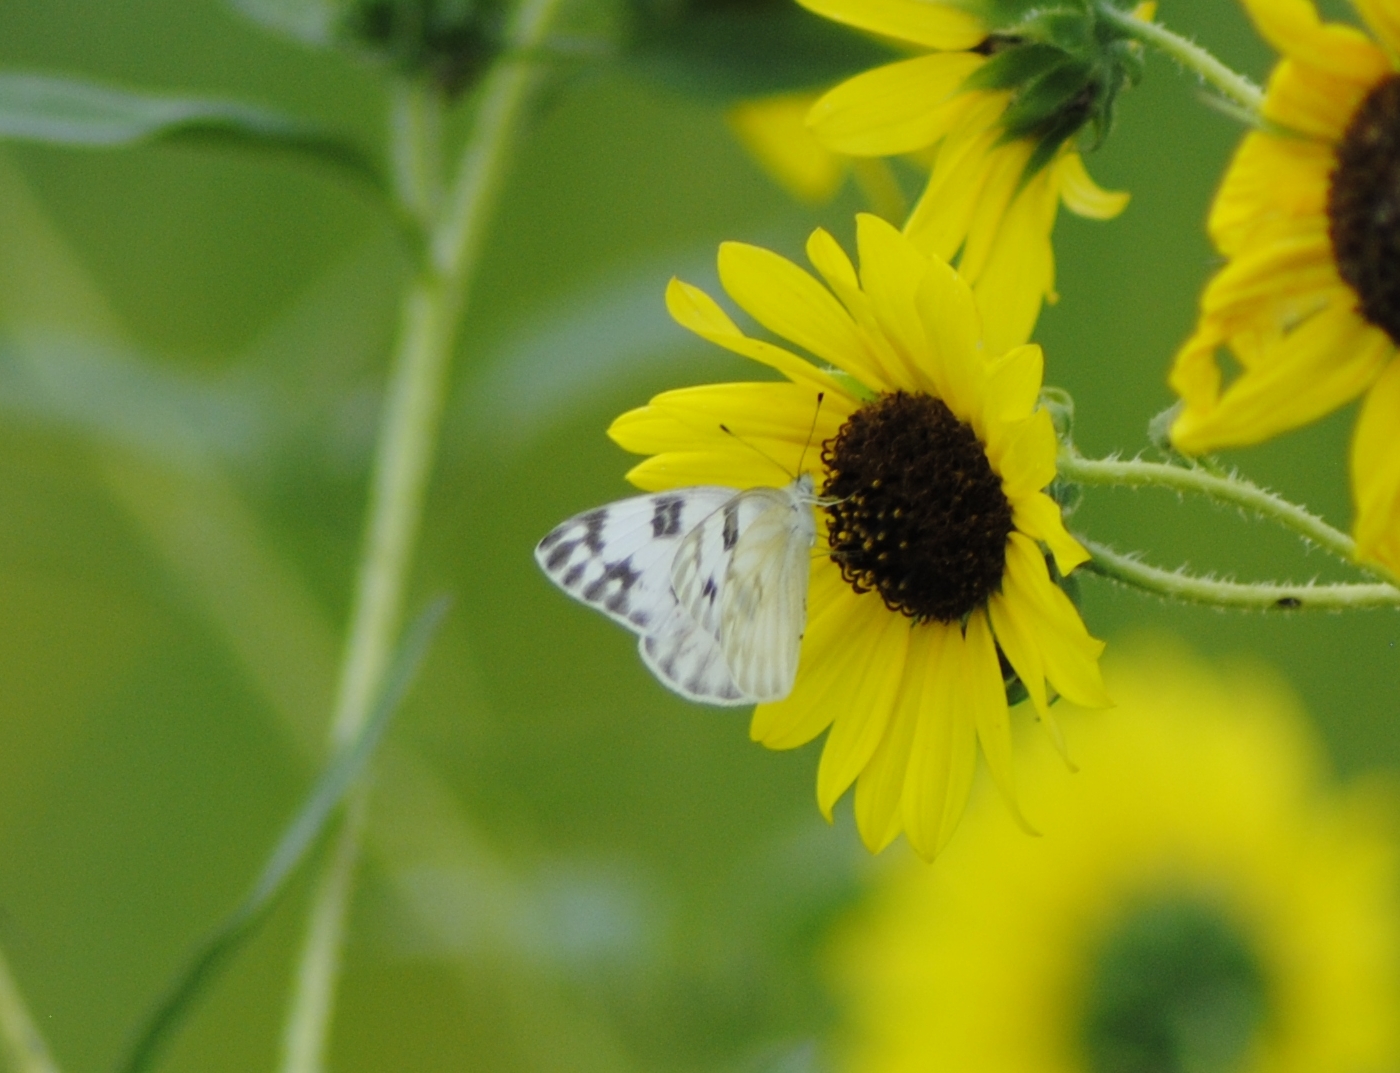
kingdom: Animalia
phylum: Arthropoda
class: Insecta
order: Lepidoptera
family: Pieridae
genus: Pontia
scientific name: Pontia protodice
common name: Checkered white
